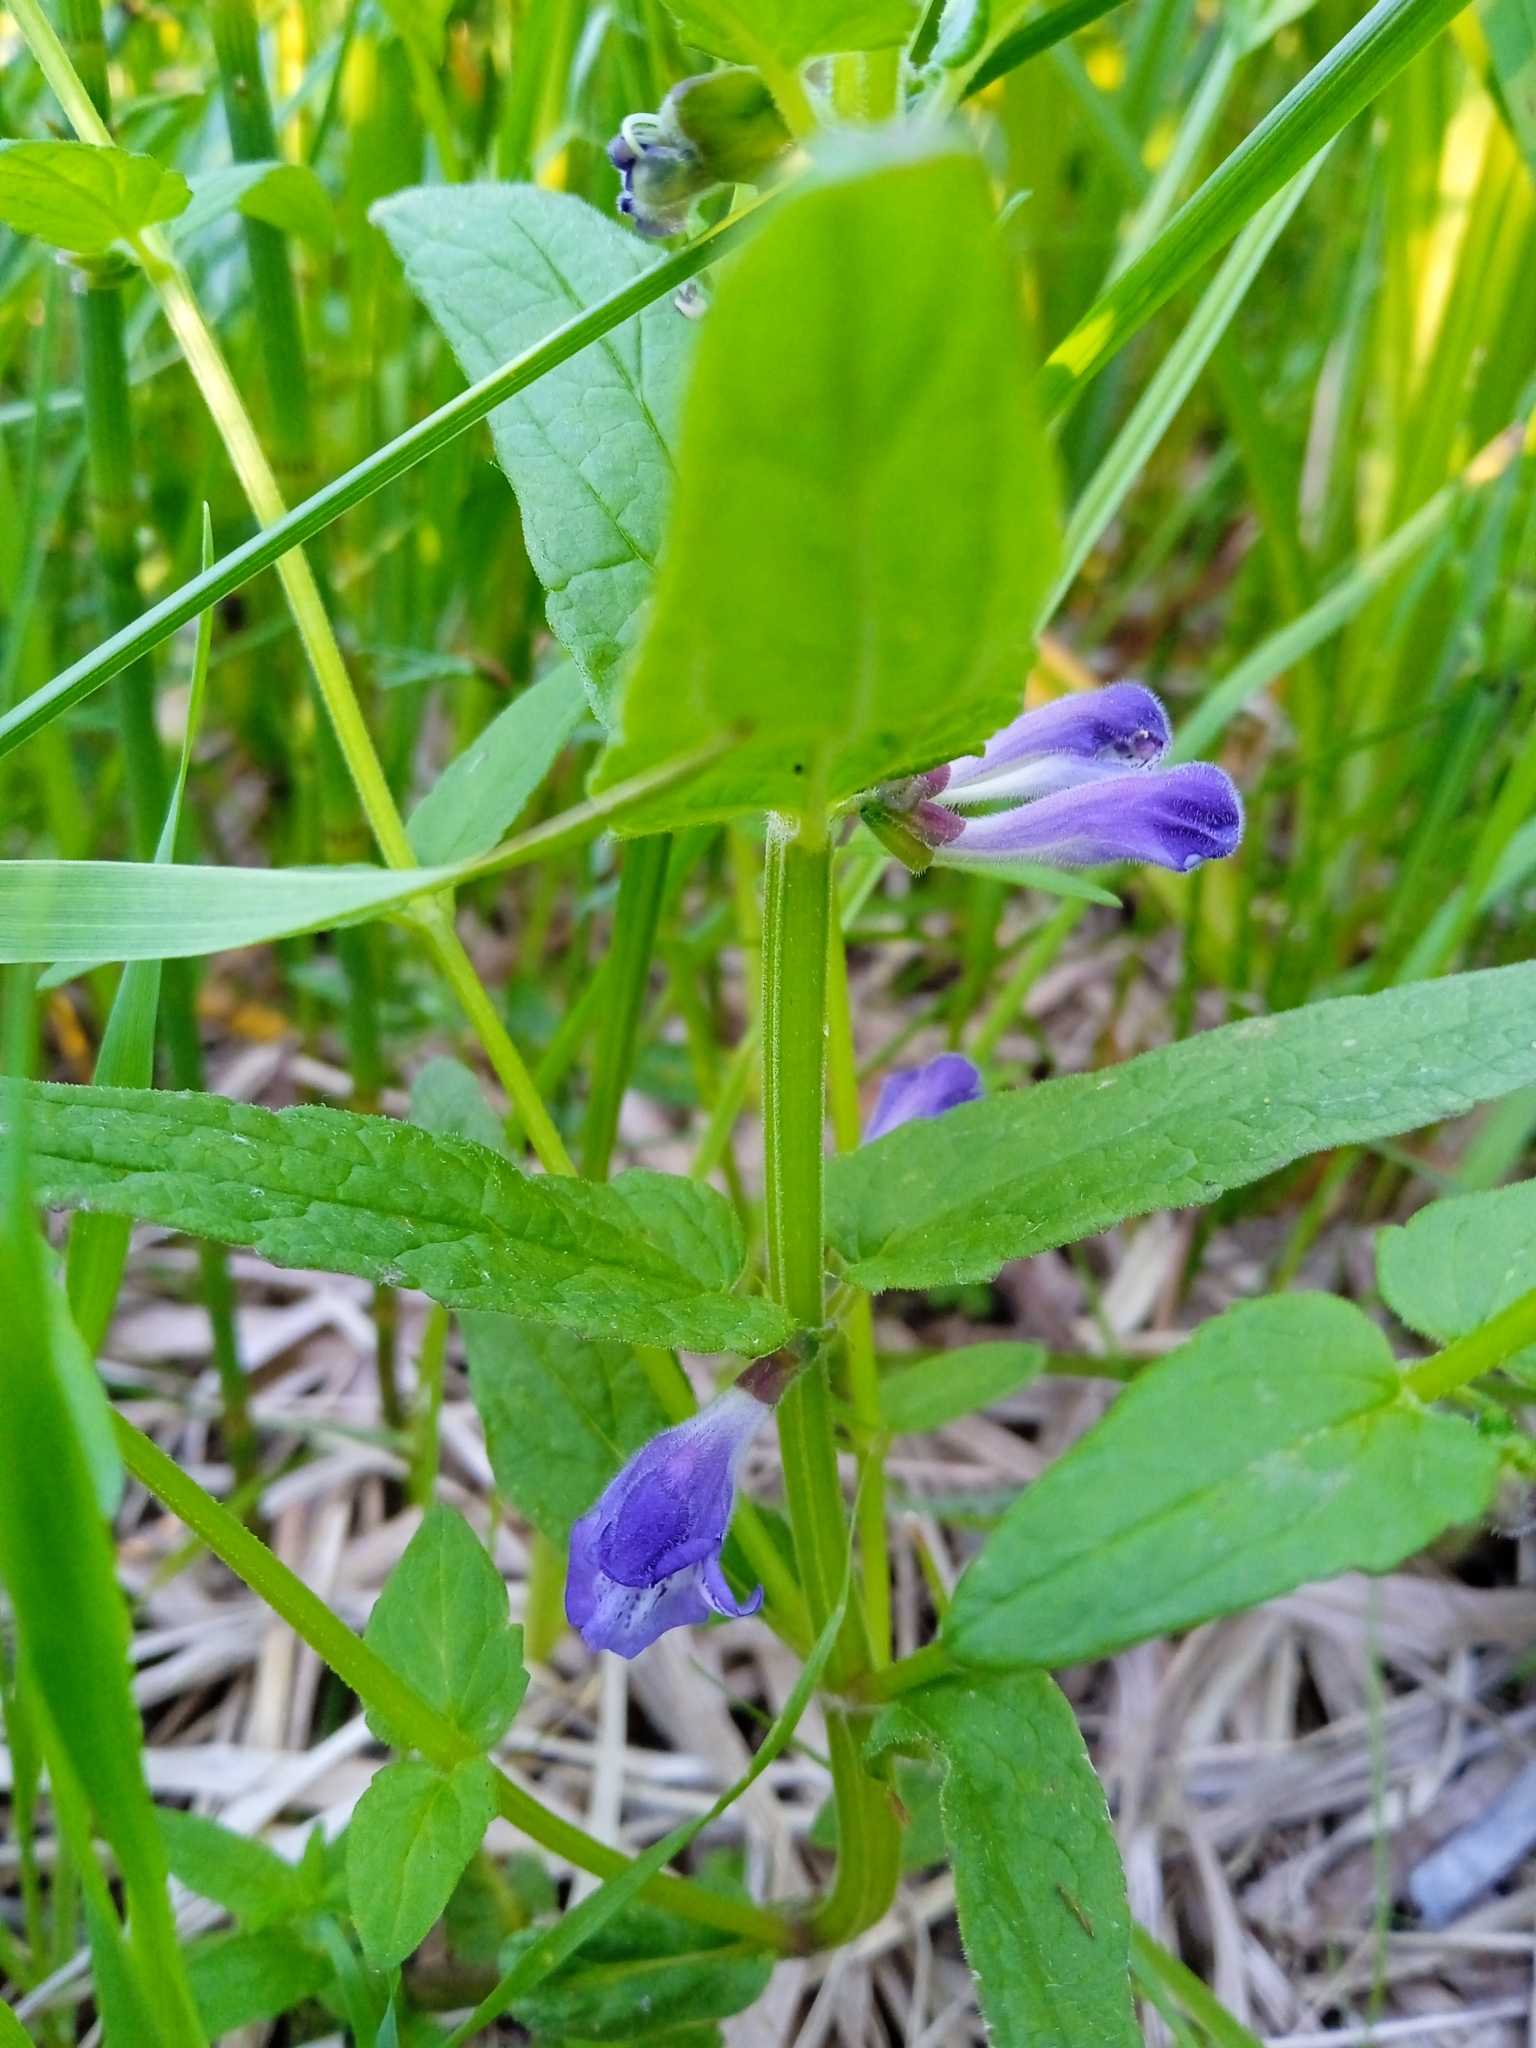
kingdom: Plantae
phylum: Tracheophyta
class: Magnoliopsida
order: Lamiales
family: Lamiaceae
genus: Scutellaria
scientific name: Scutellaria galericulata
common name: Skullcap
